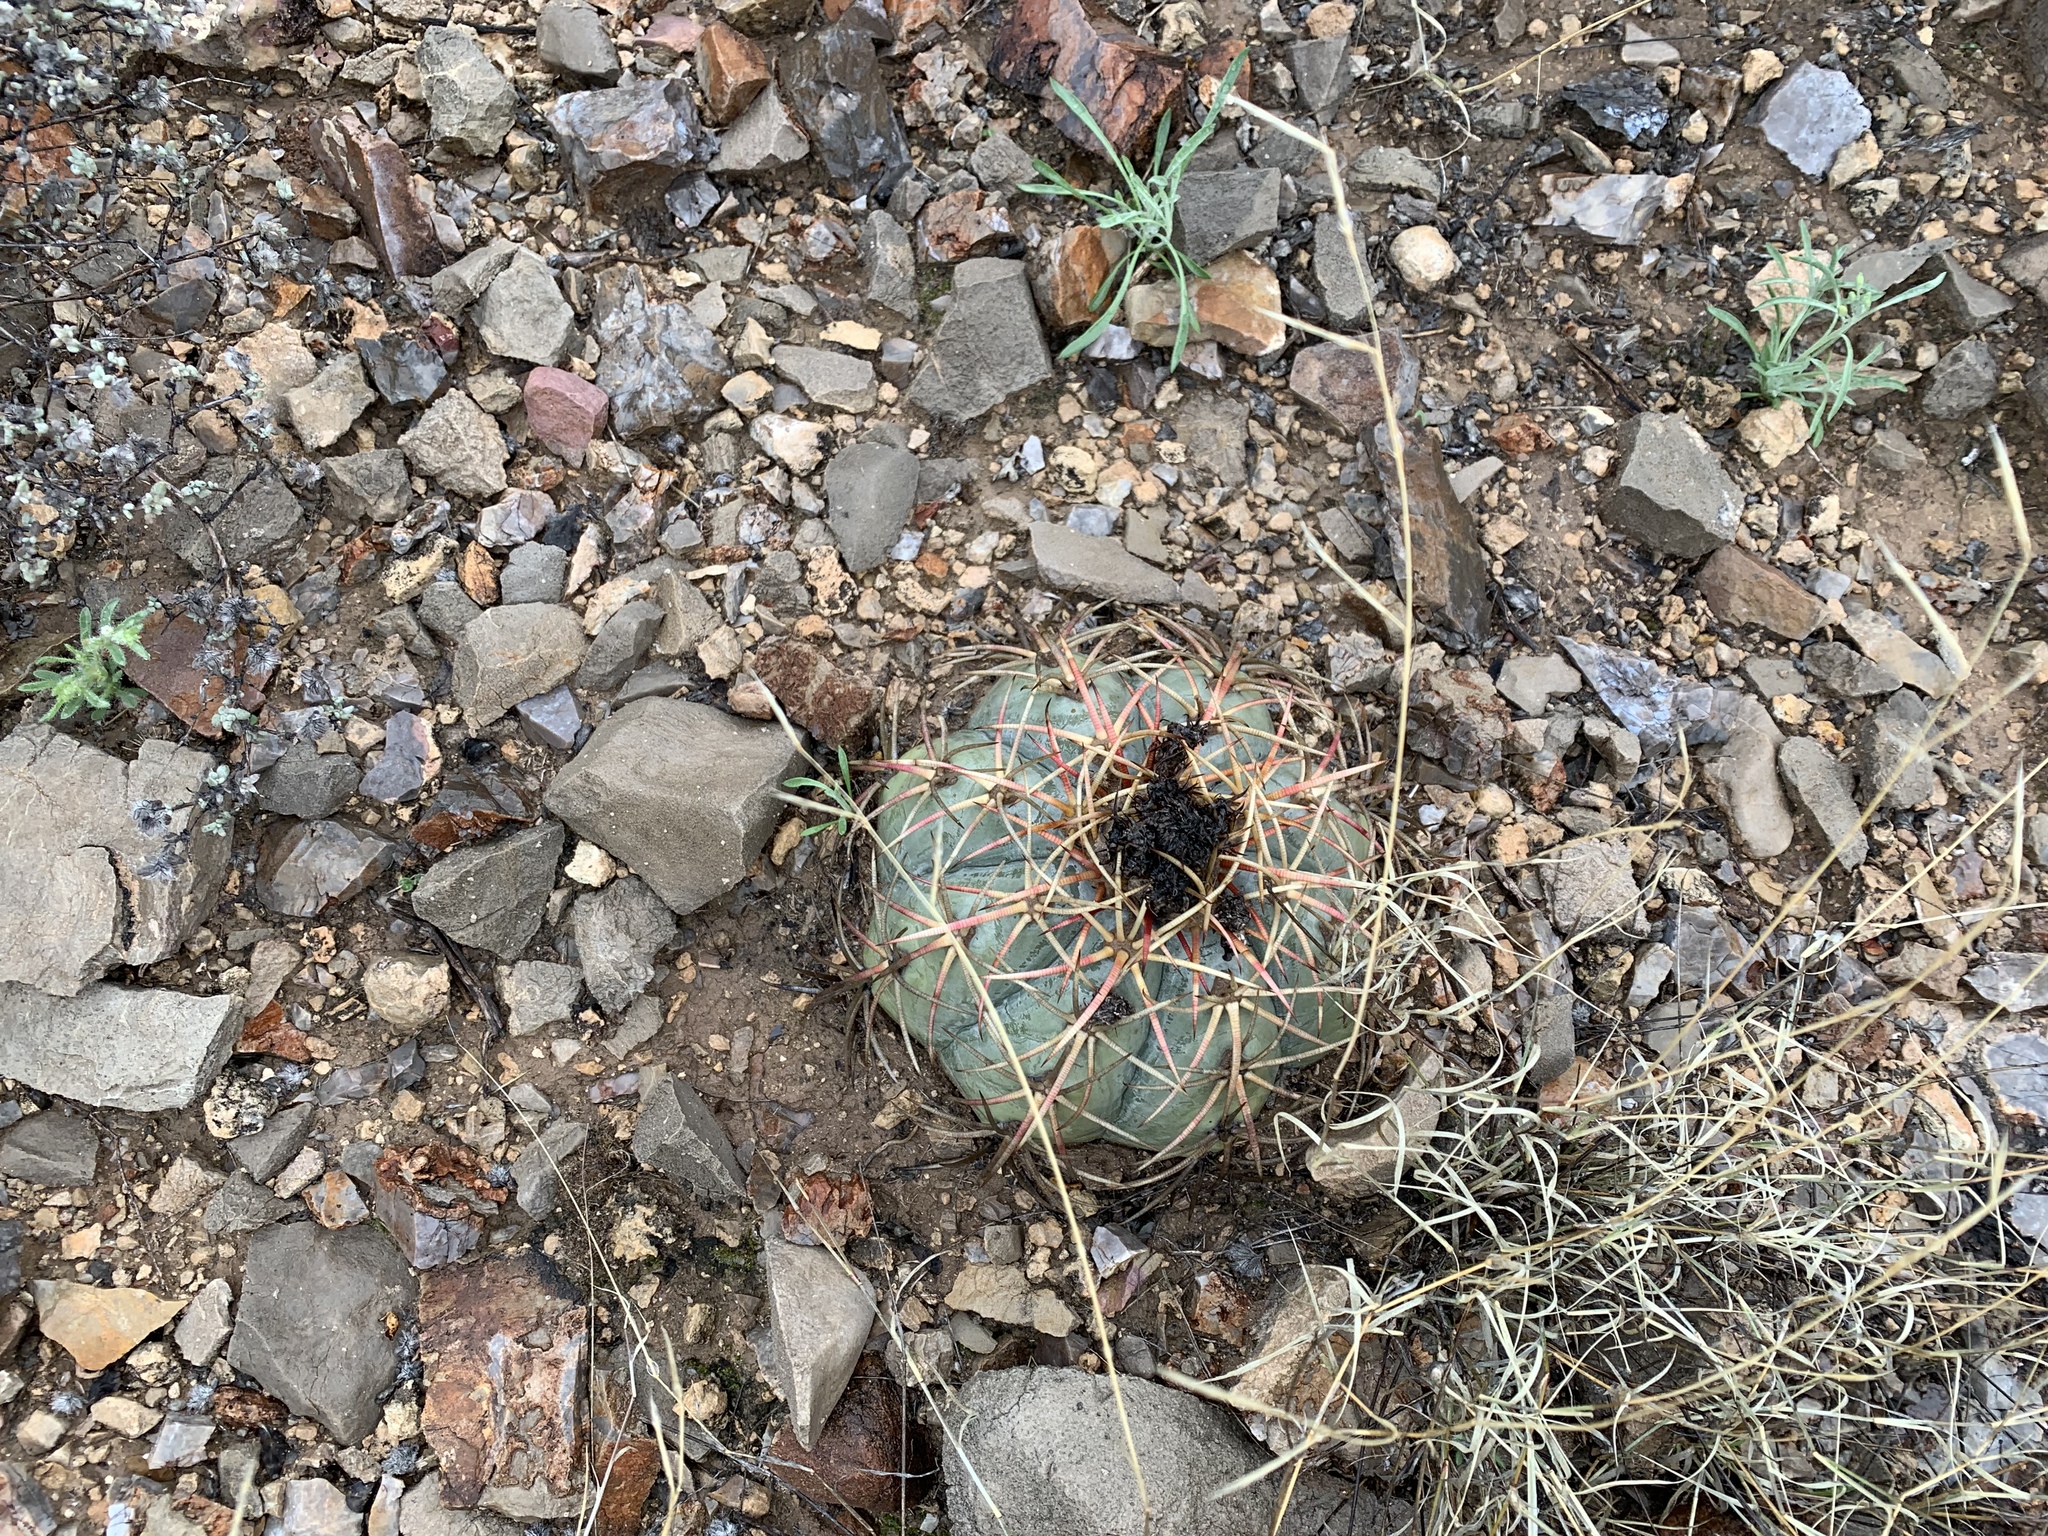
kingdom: Plantae
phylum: Tracheophyta
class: Magnoliopsida
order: Caryophyllales
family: Cactaceae
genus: Echinocactus
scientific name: Echinocactus horizonthalonius
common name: Devilshead
